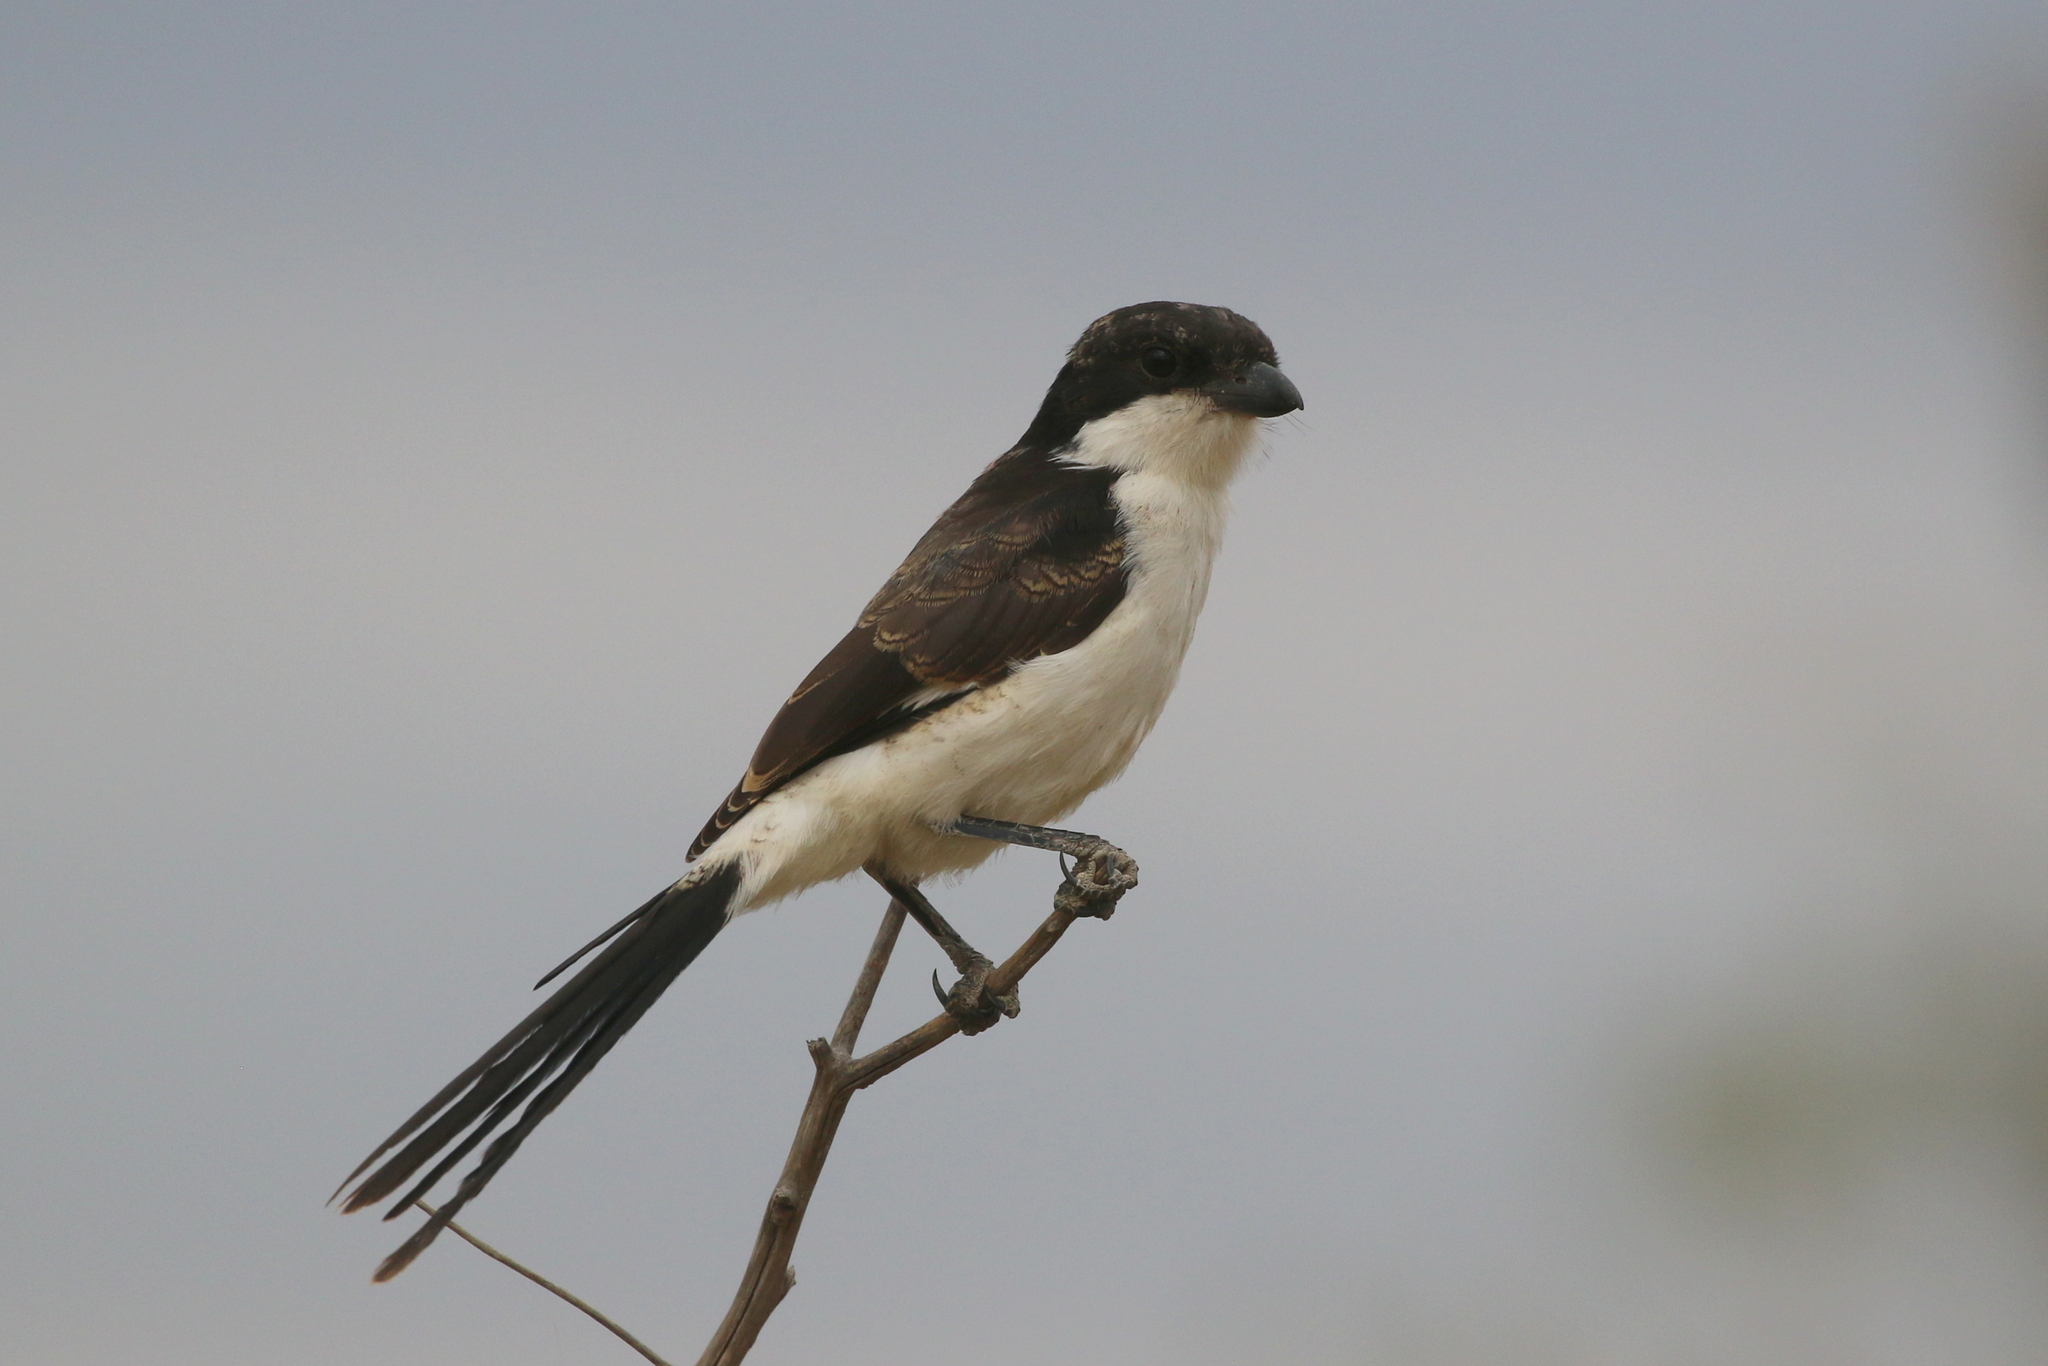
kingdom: Animalia
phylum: Chordata
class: Aves
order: Passeriformes
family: Laniidae
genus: Lanius
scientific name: Lanius cabanisi
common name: Long-tailed fiscal
